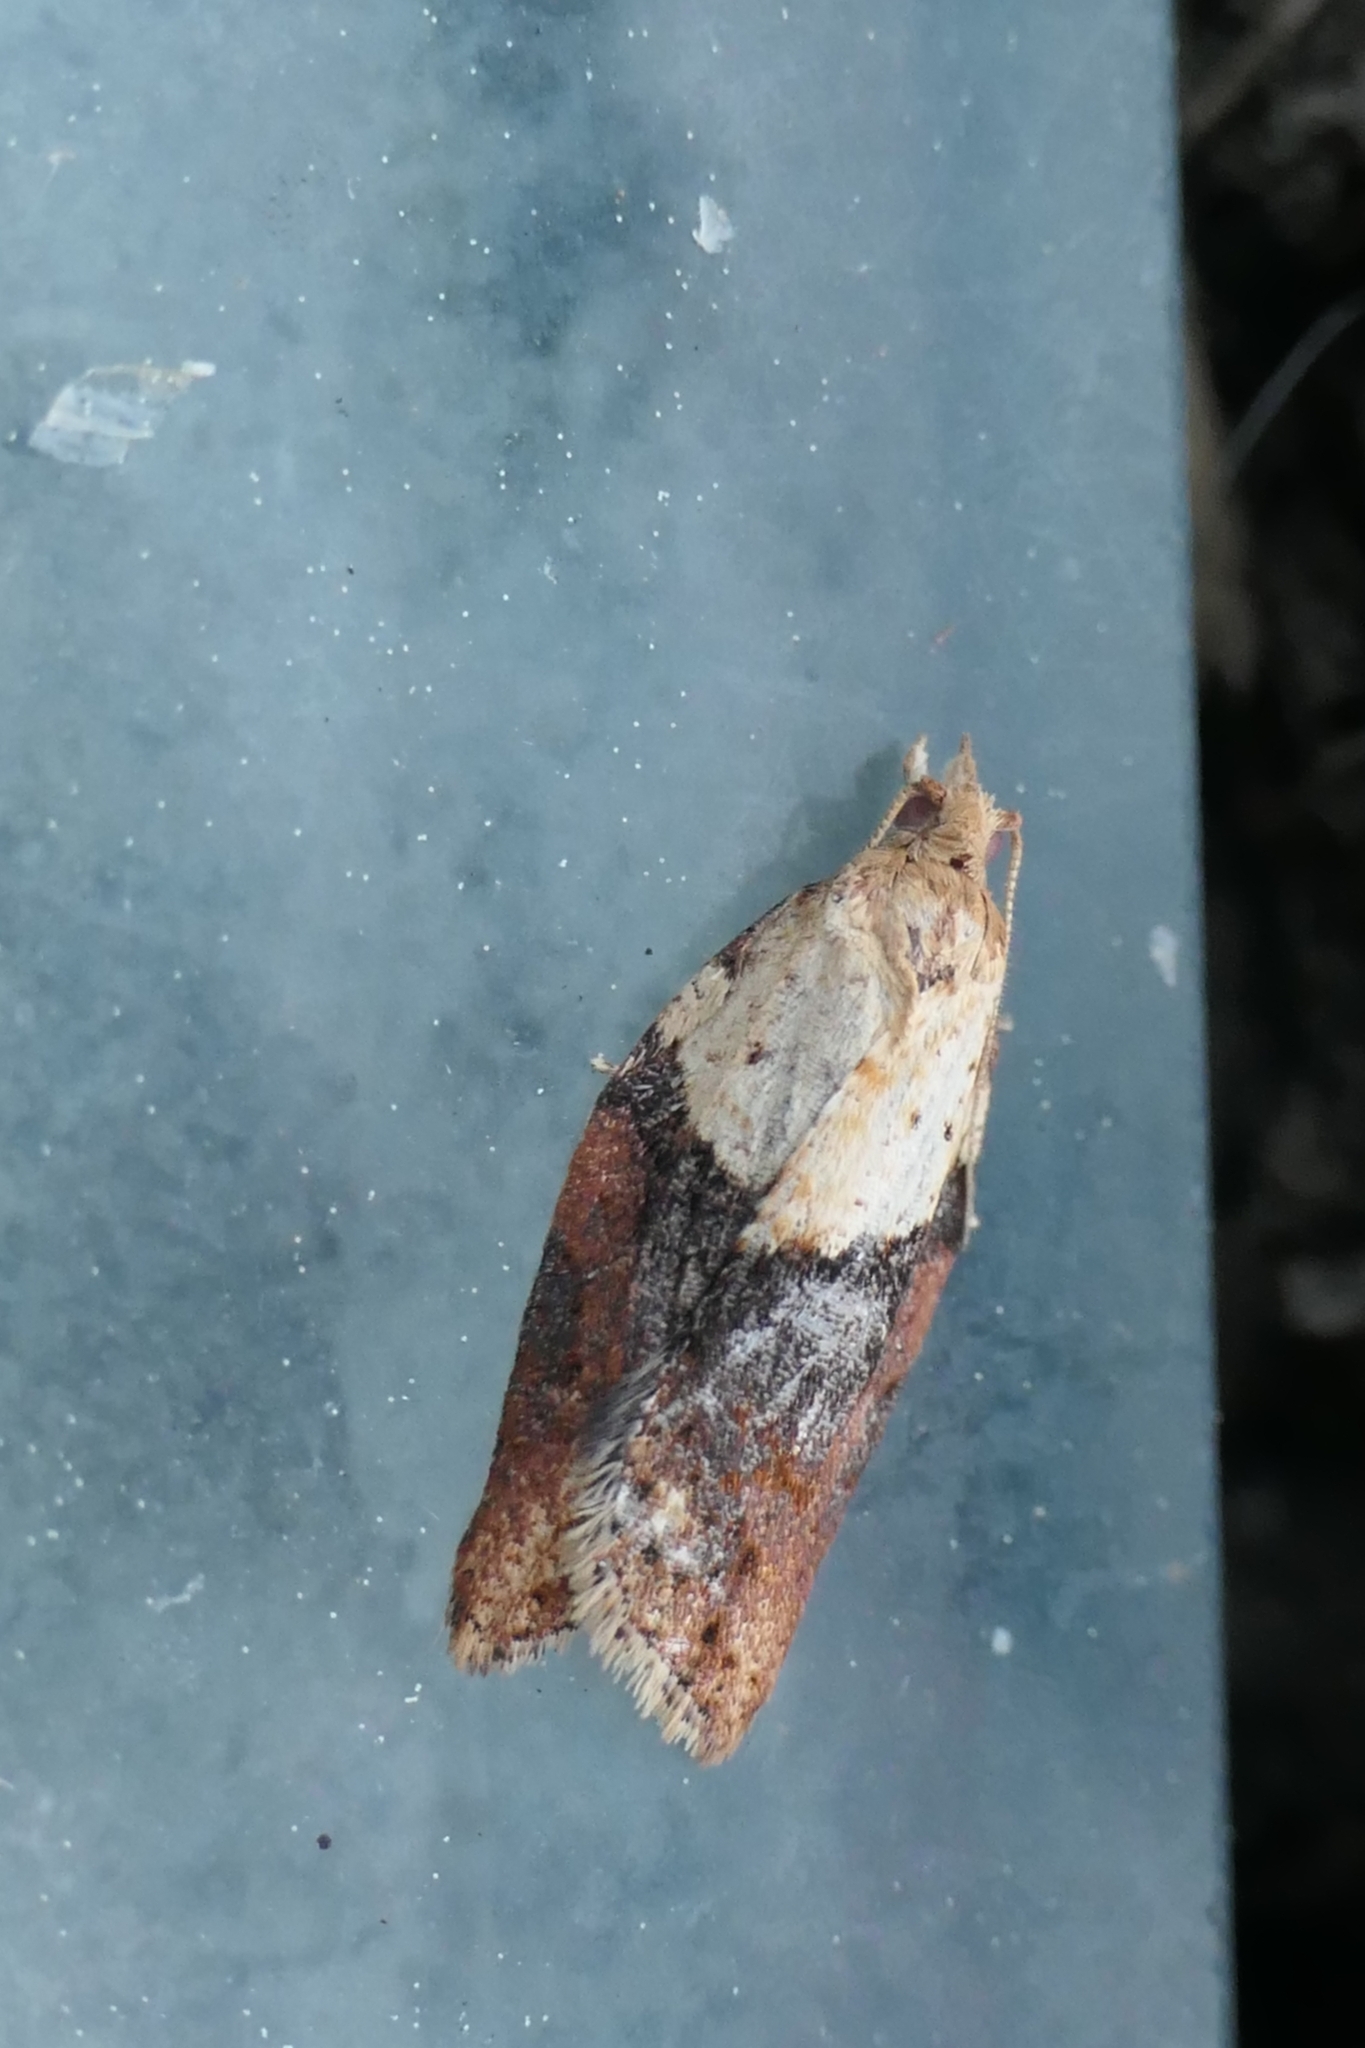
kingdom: Animalia
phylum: Arthropoda
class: Insecta
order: Lepidoptera
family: Tortricidae
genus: Epiphyas
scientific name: Epiphyas postvittana
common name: Light brown apple moth
